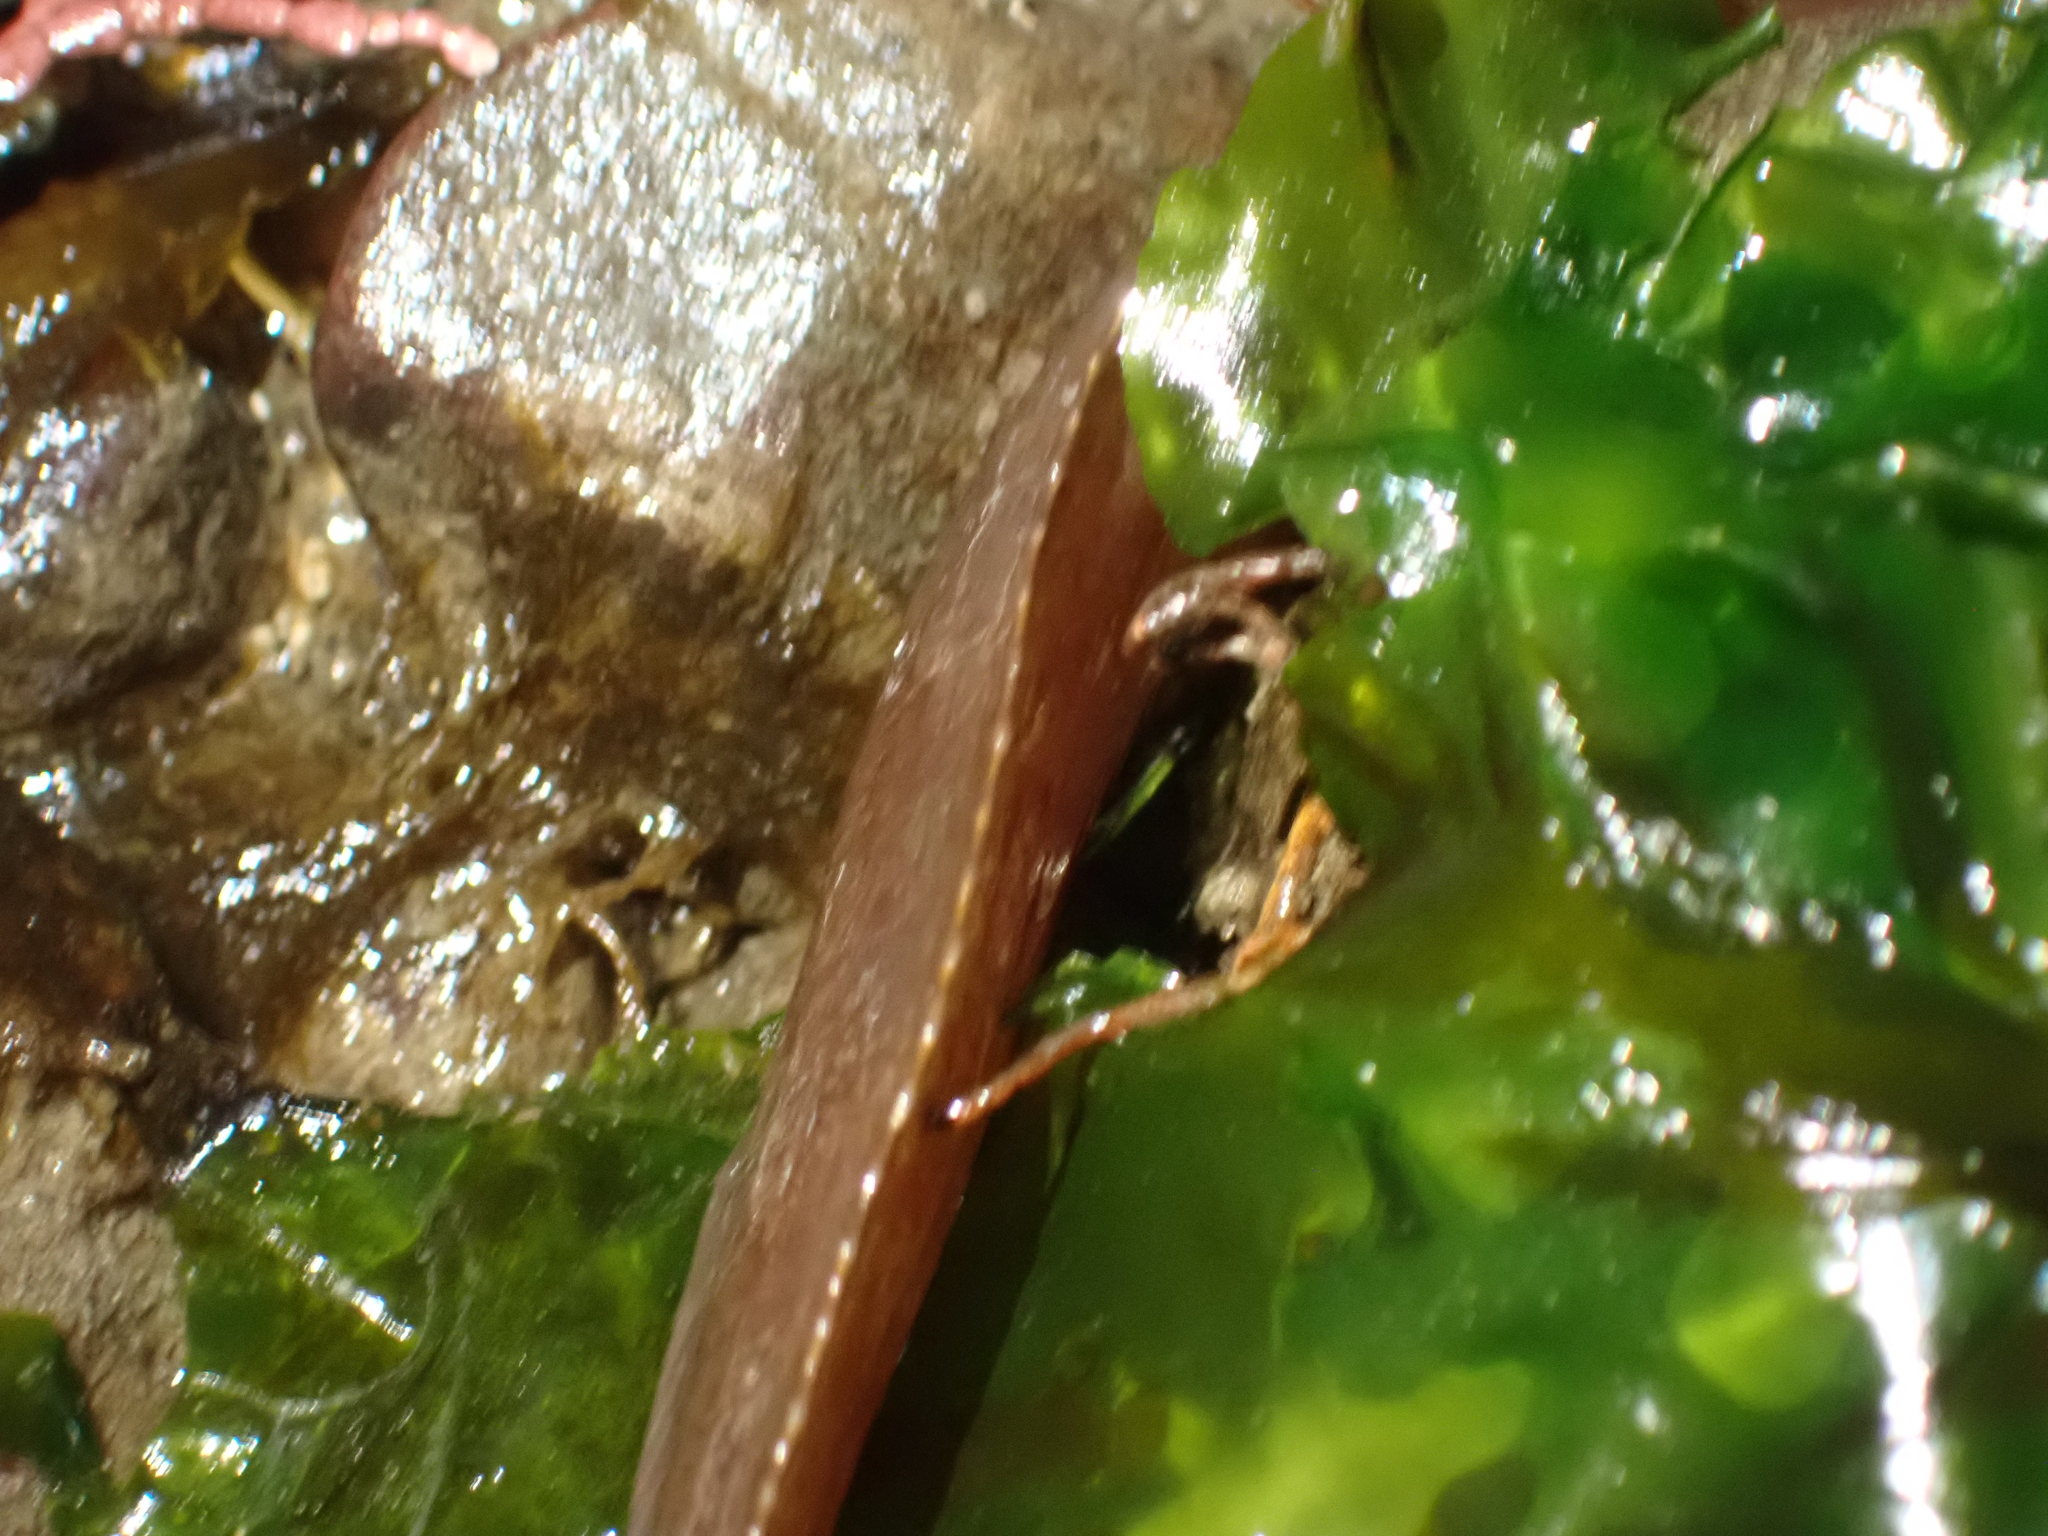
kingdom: Animalia
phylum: Chordata
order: Perciformes
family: Stichaeidae
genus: Xiphister
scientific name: Xiphister atropurpureus
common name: Black prickleback
